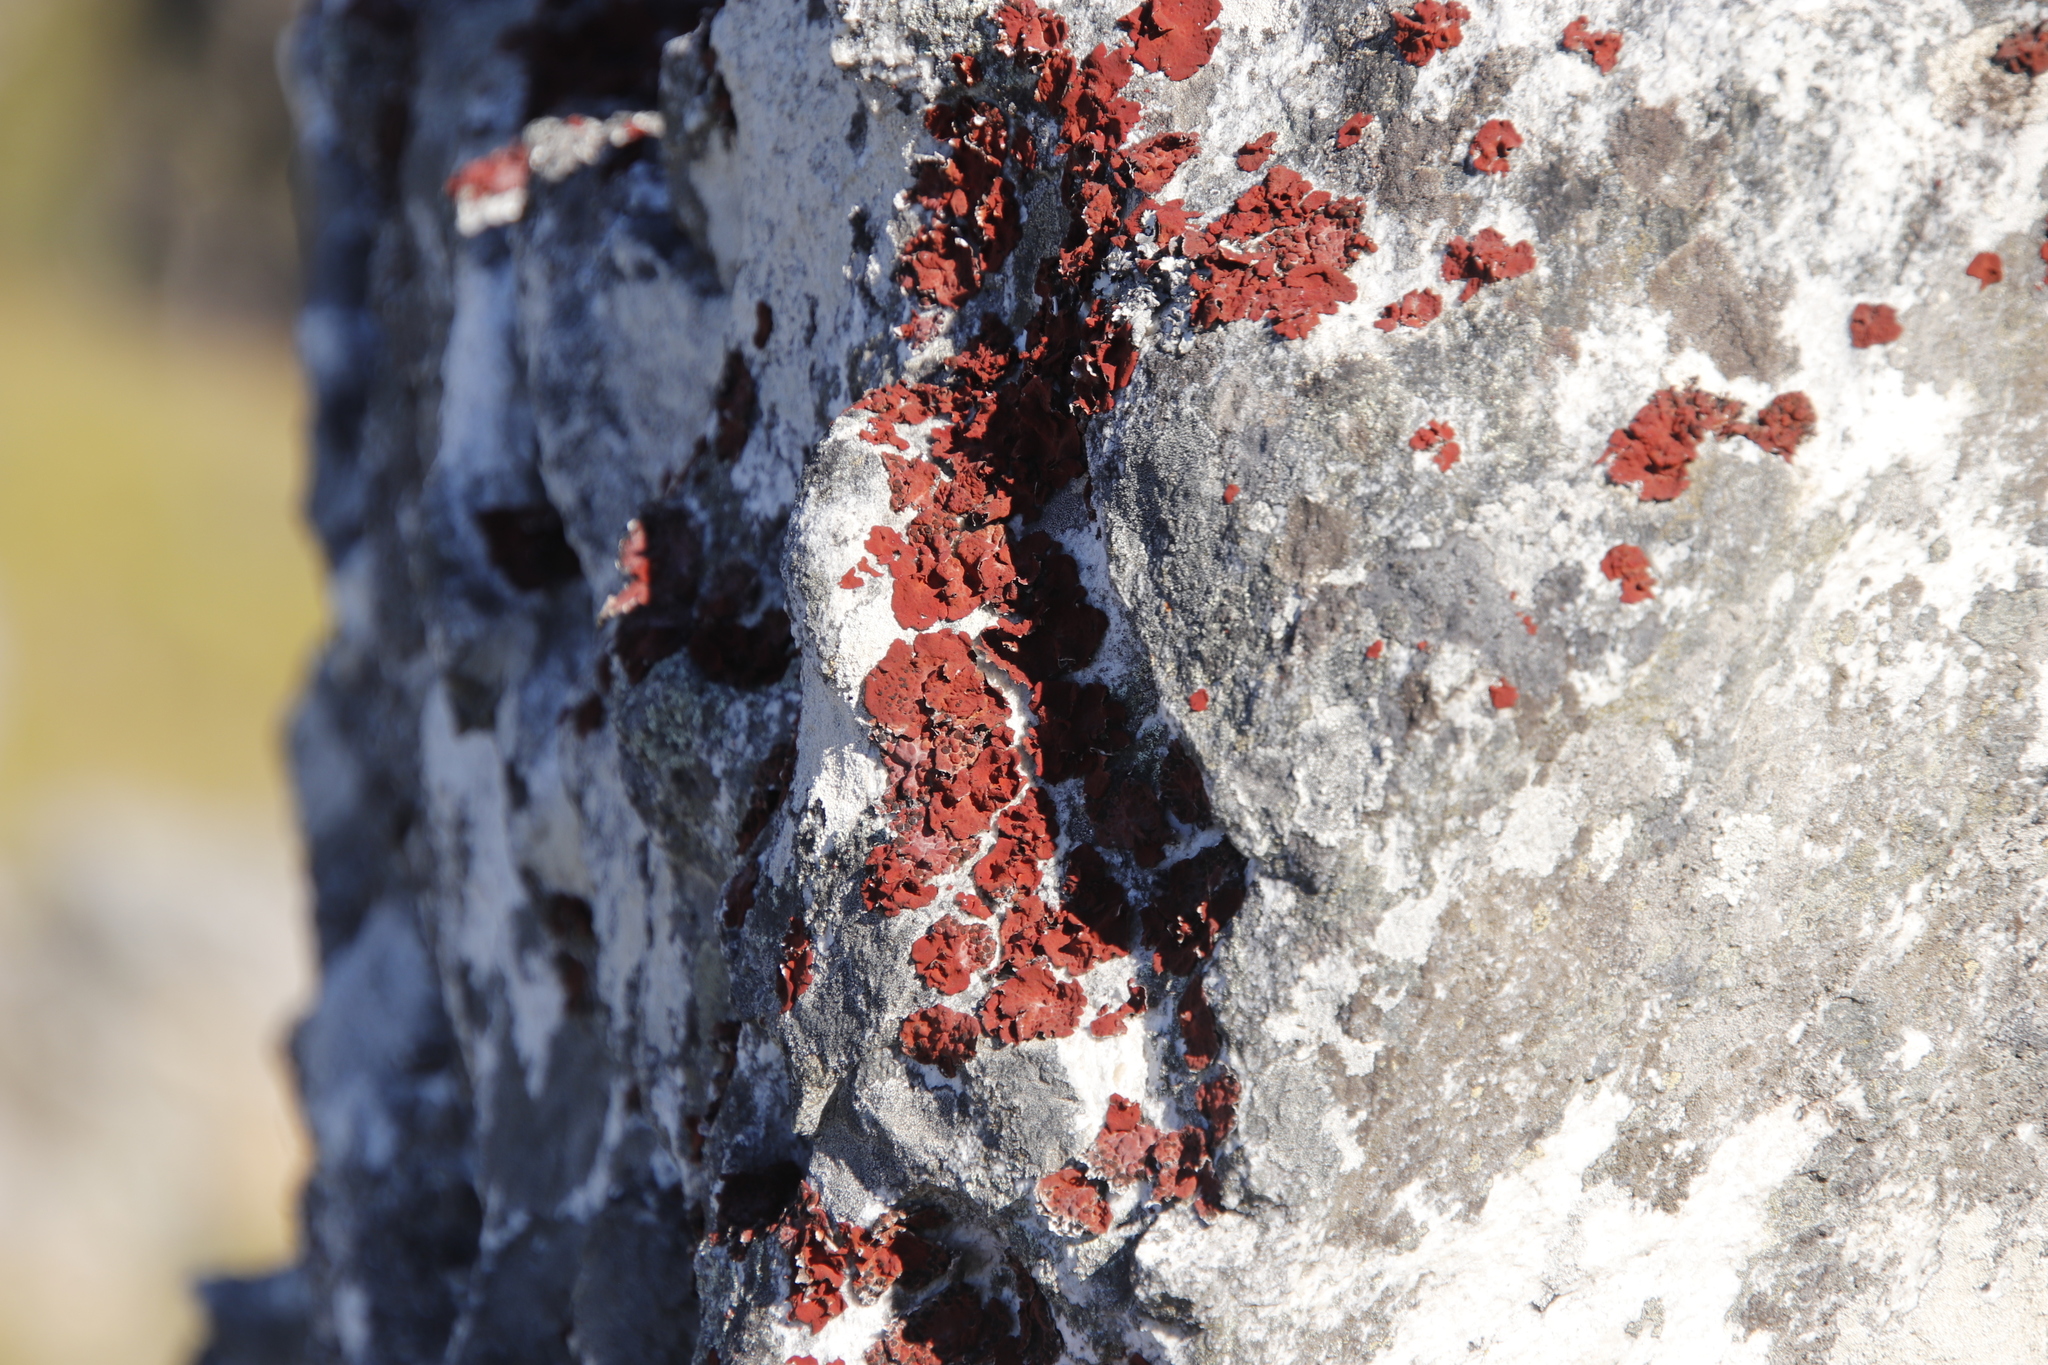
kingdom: Fungi
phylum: Ascomycota
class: Lecanoromycetes
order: Umbilicariales
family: Umbilicariaceae
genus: Lasallia
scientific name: Lasallia rubiginosa
